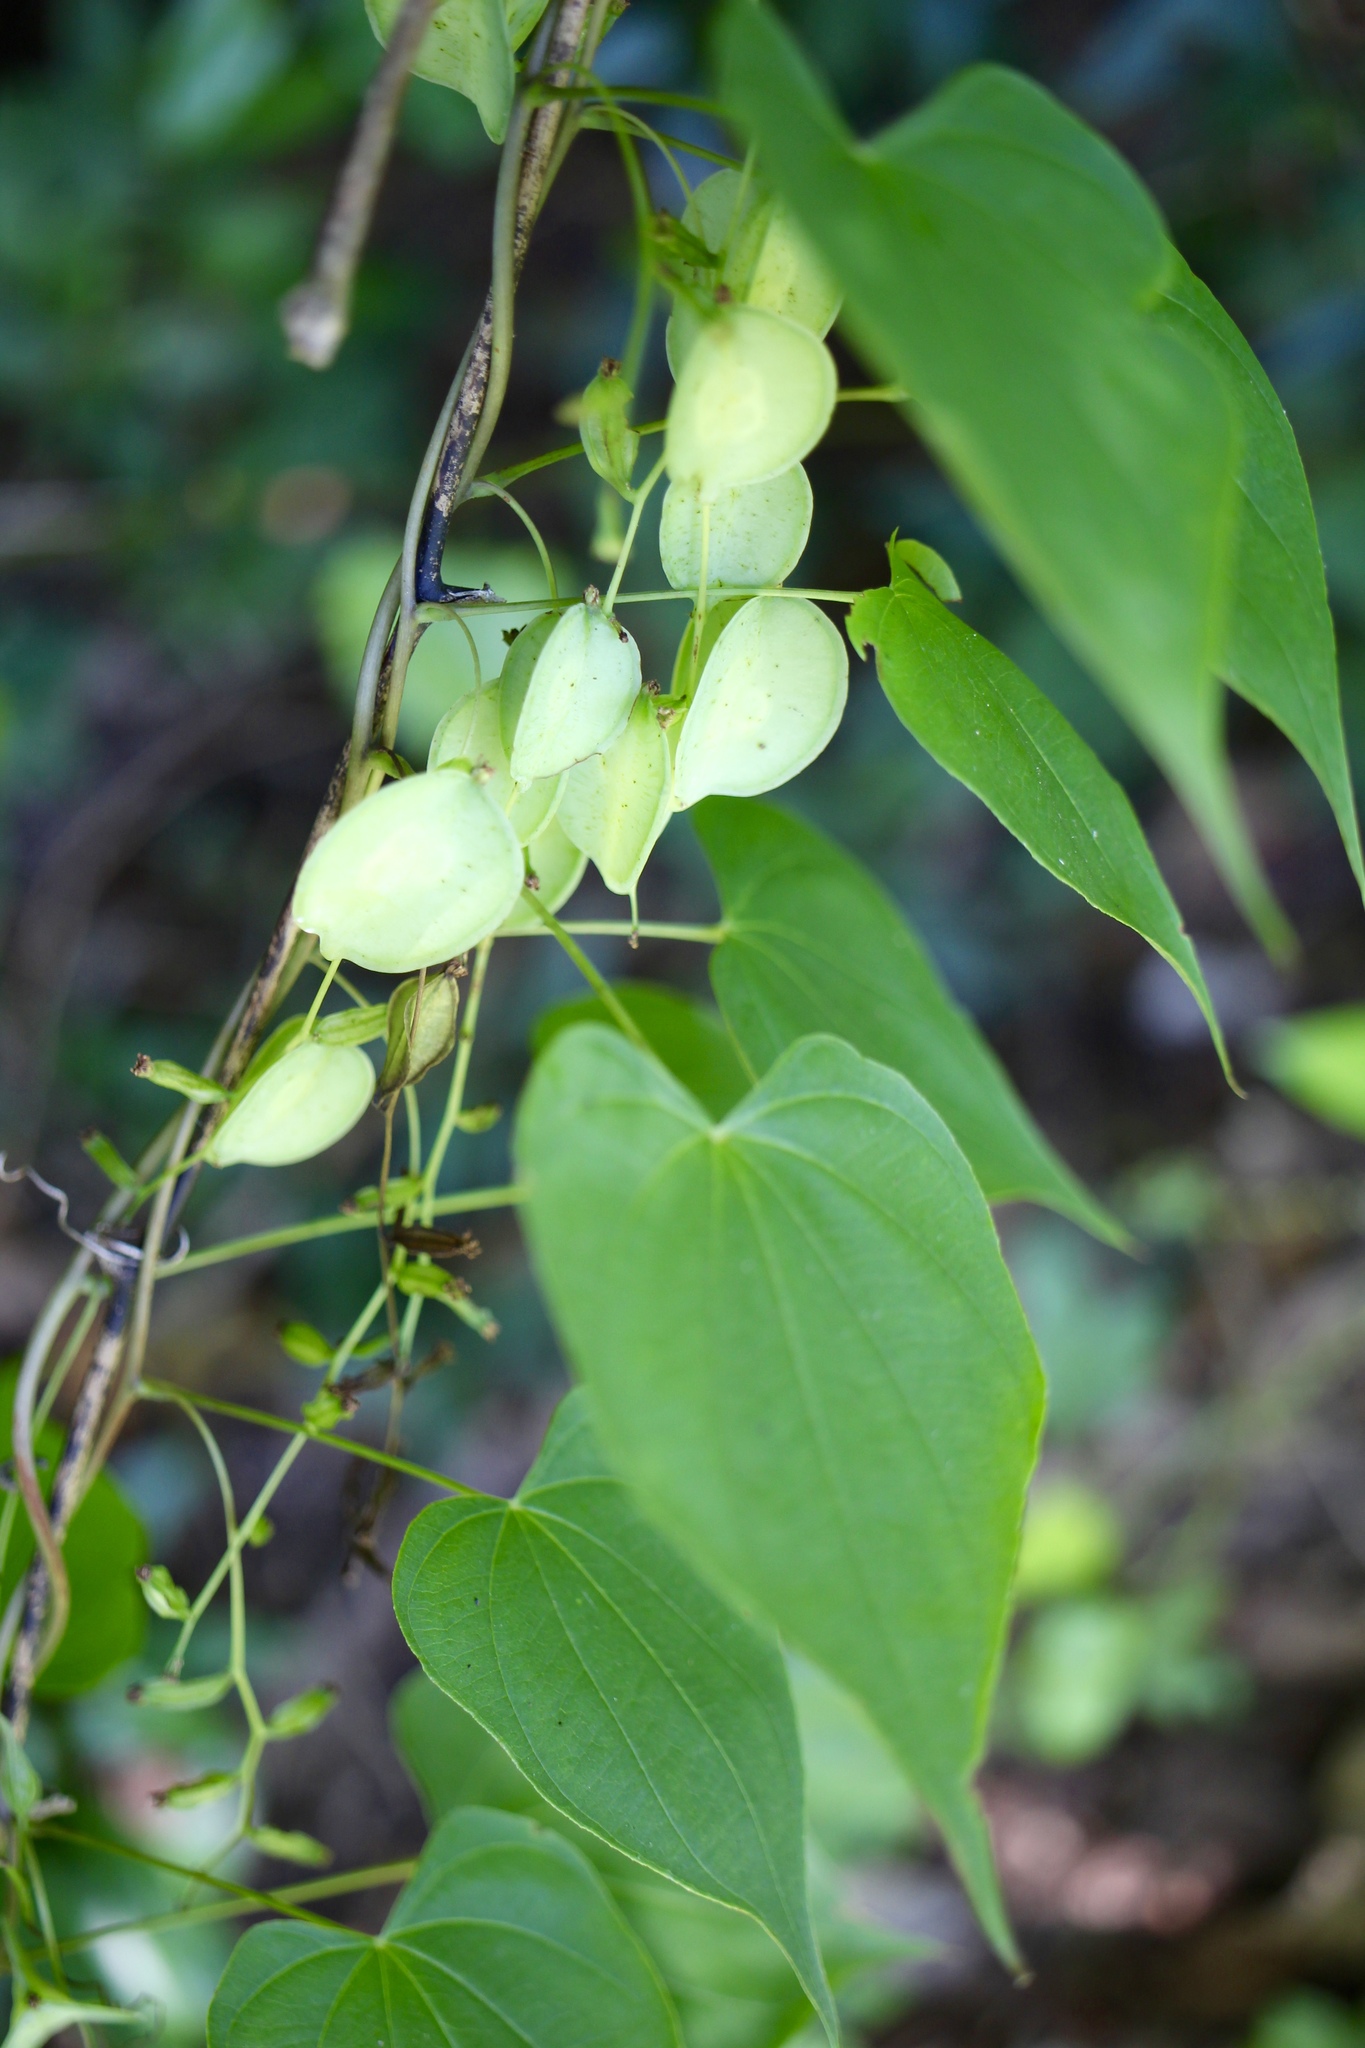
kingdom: Plantae
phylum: Tracheophyta
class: Liliopsida
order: Dioscoreales
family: Dioscoreaceae
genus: Dioscorea
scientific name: Dioscorea villosa
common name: Wild yam
